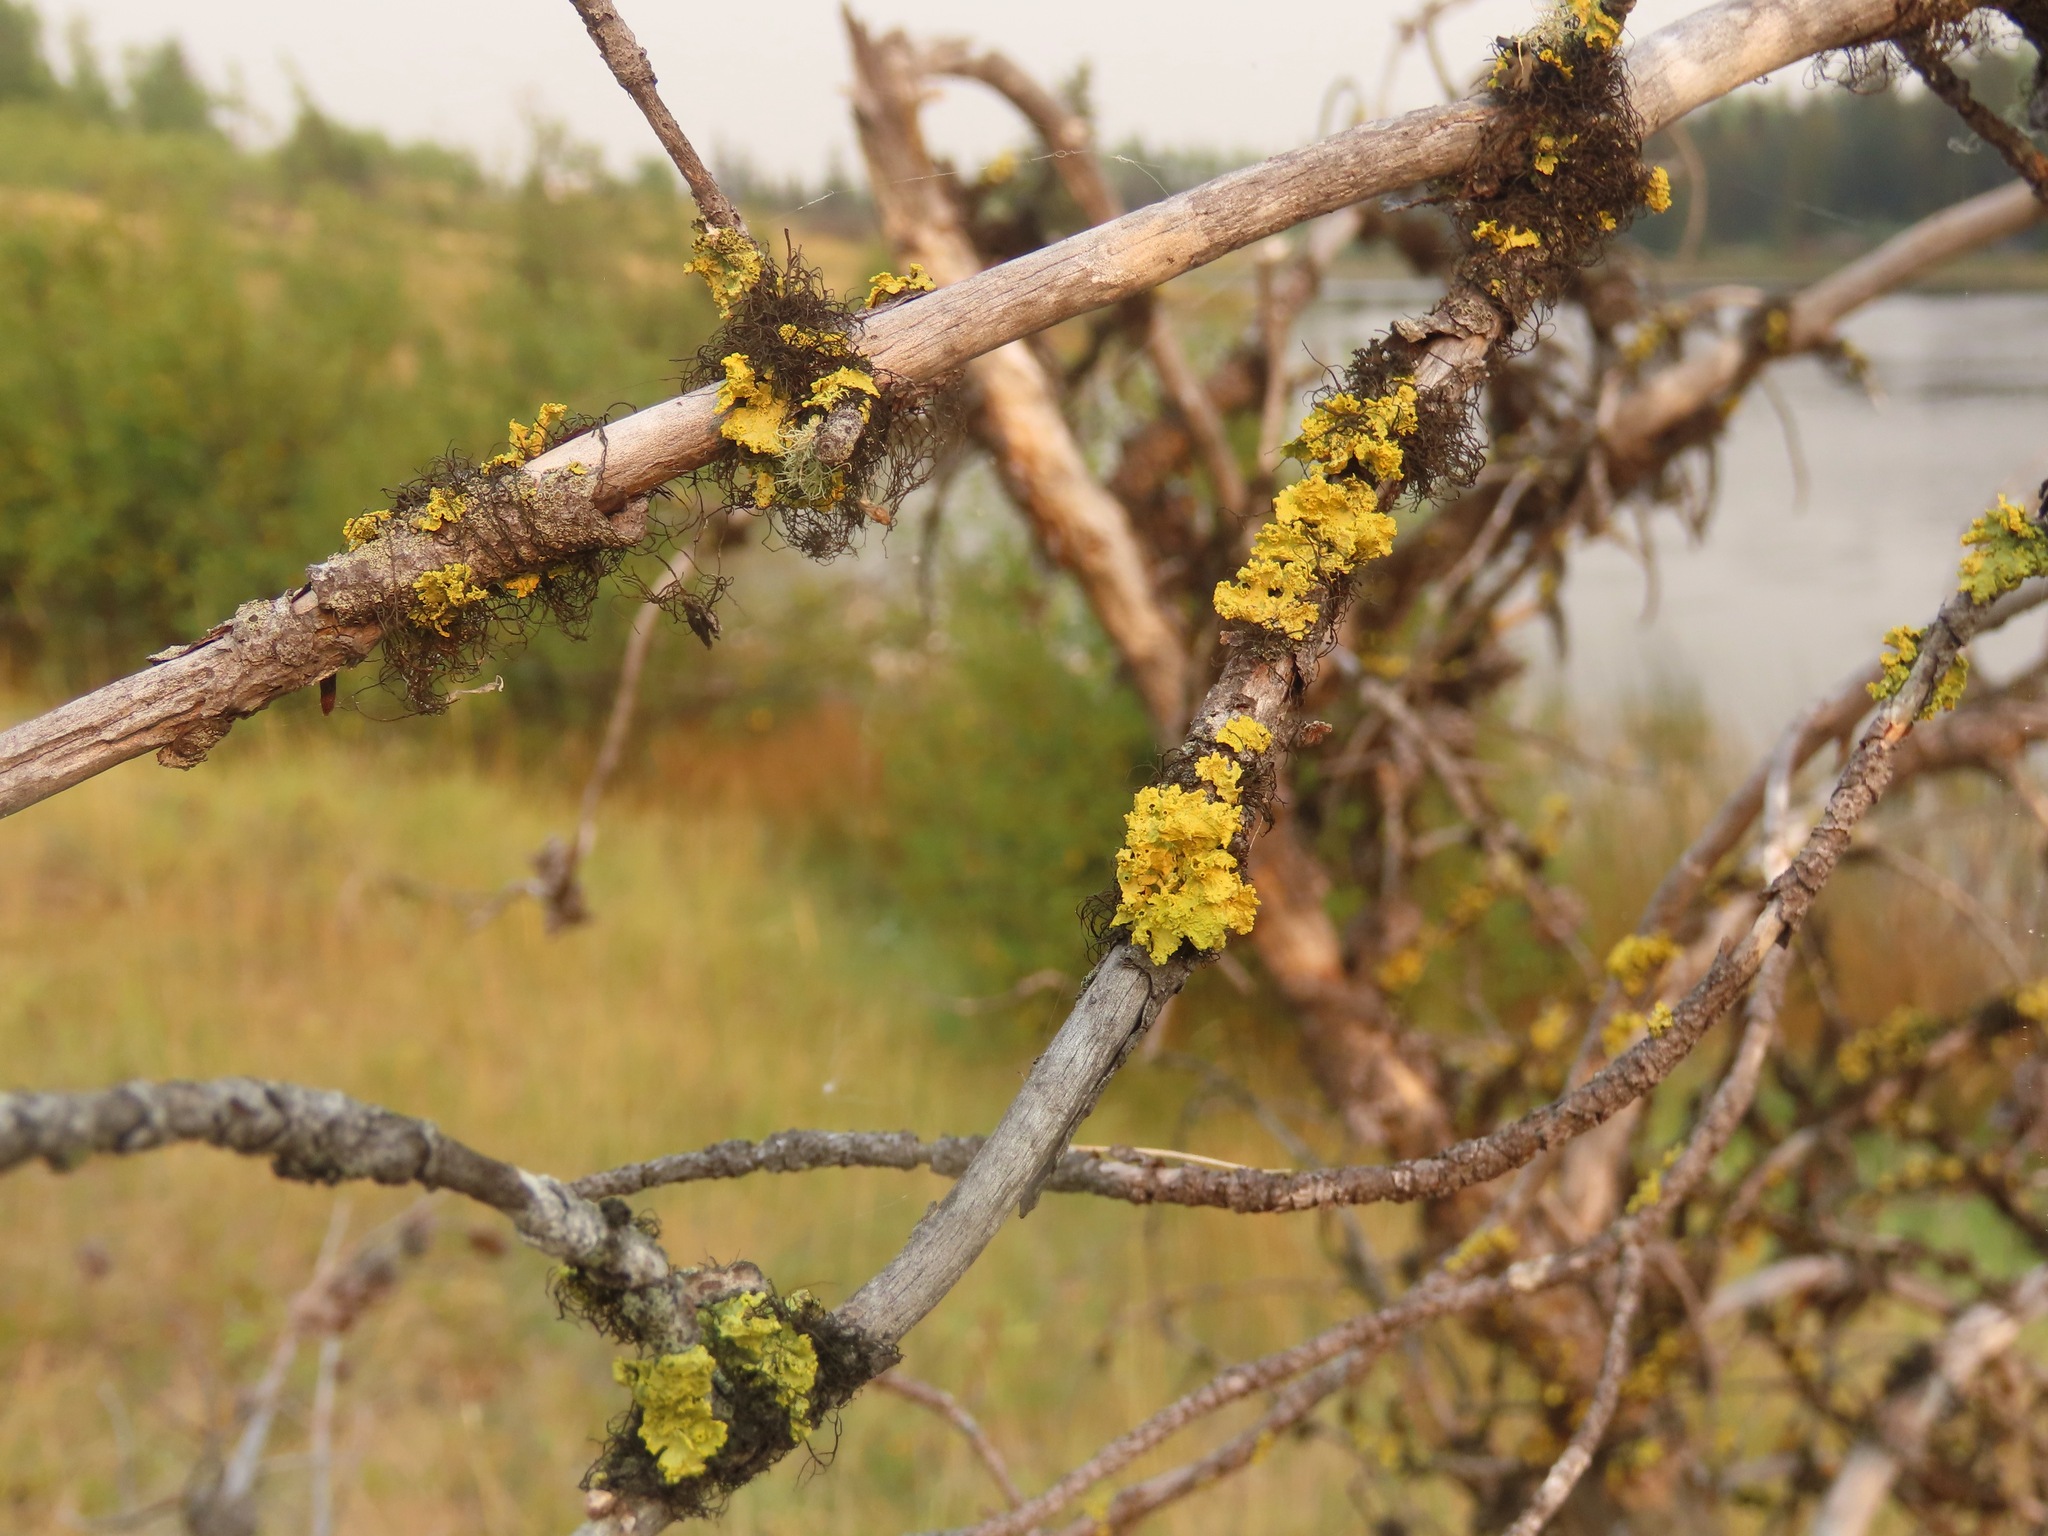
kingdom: Fungi
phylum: Ascomycota
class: Lecanoromycetes
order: Lecanorales
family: Parmeliaceae
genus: Vulpicida
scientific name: Vulpicida canadensis
